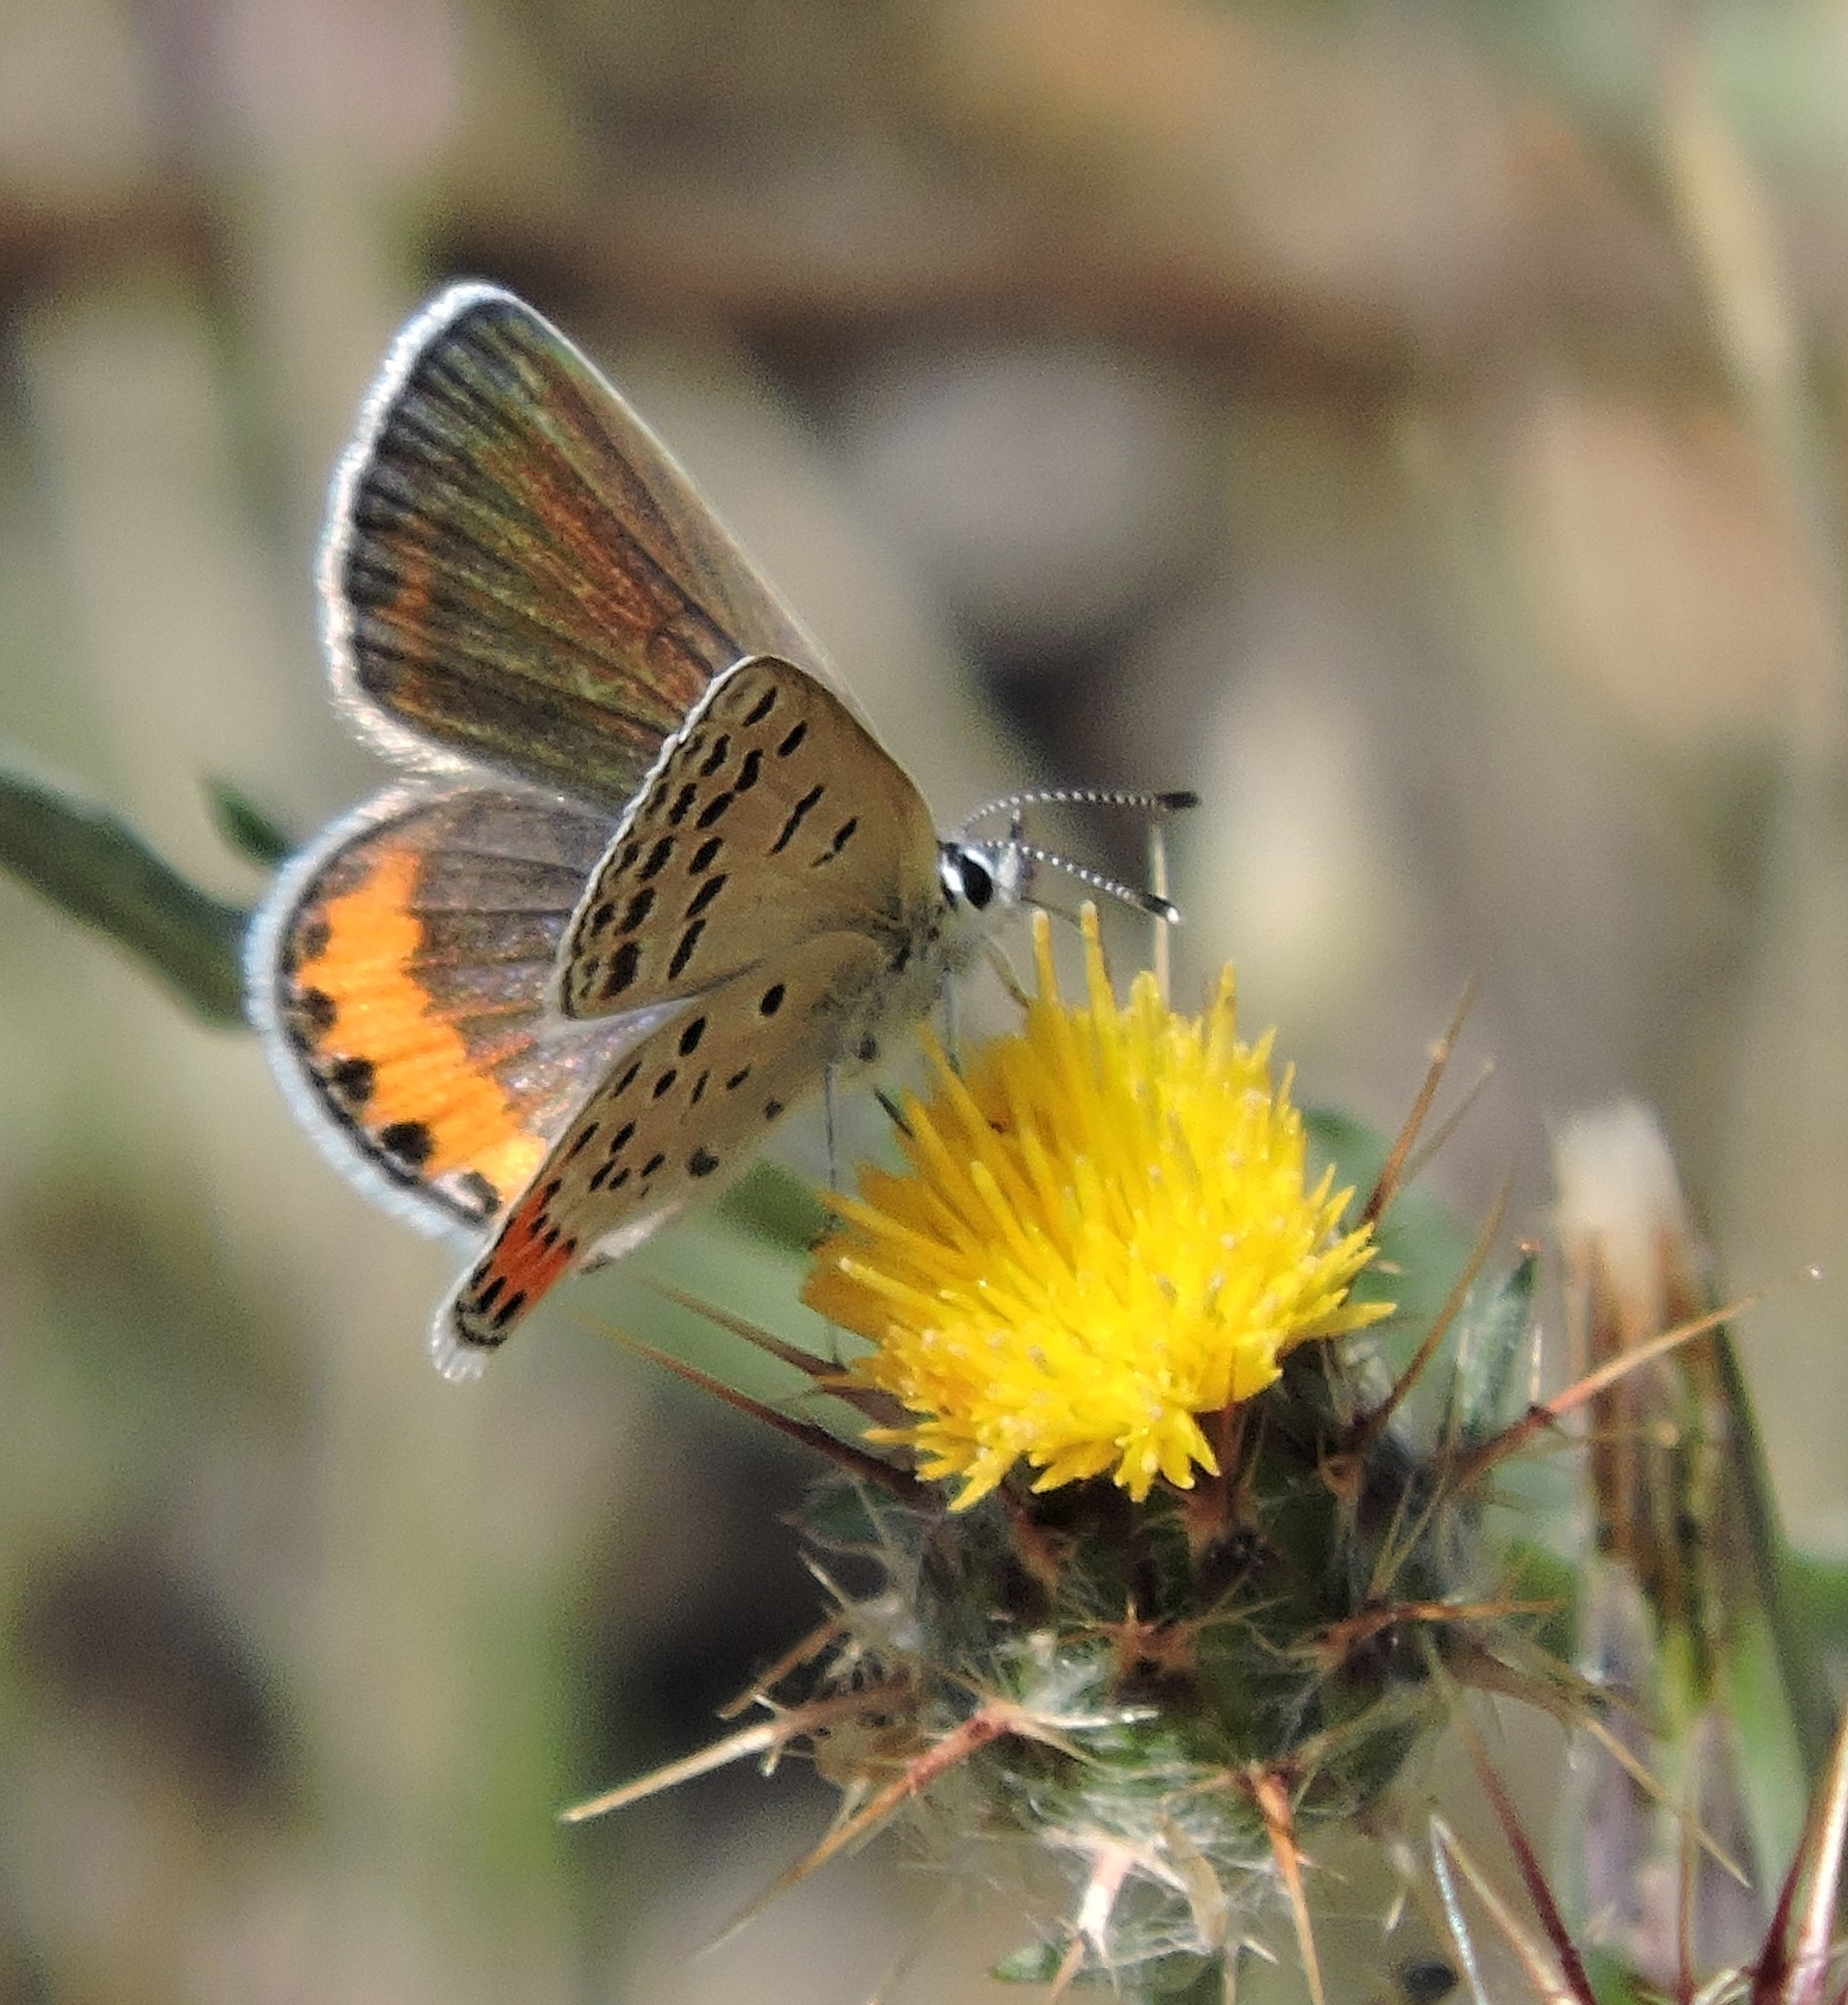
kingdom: Animalia
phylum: Arthropoda
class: Insecta
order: Lepidoptera
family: Lycaenidae
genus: Icaricia
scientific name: Icaricia acmon
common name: Acmon blue
